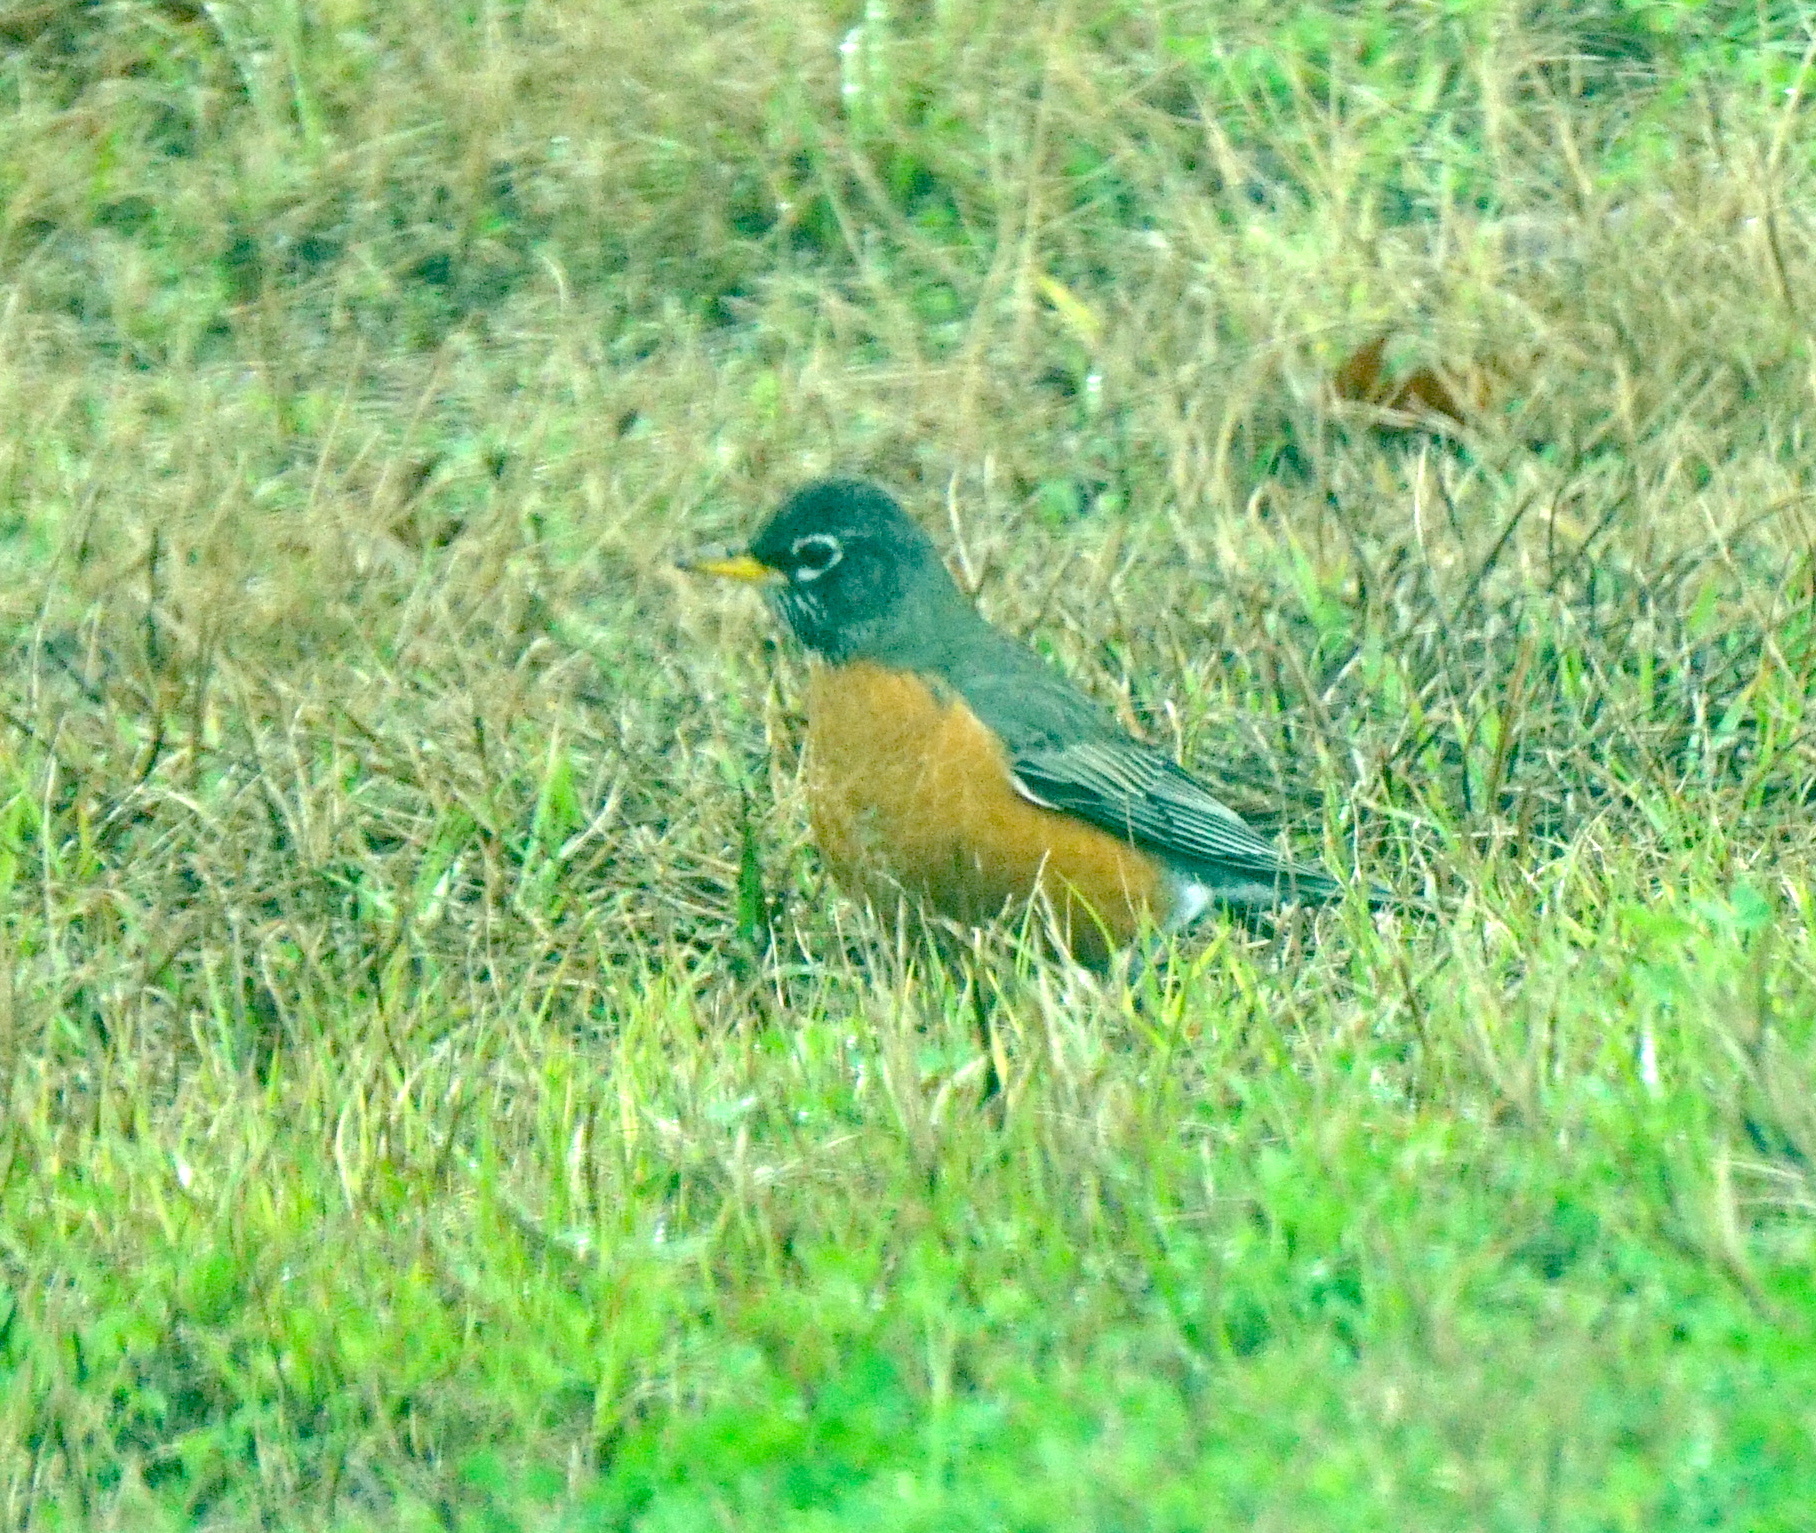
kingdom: Animalia
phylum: Chordata
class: Aves
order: Passeriformes
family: Turdidae
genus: Turdus
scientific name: Turdus migratorius
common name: American robin
